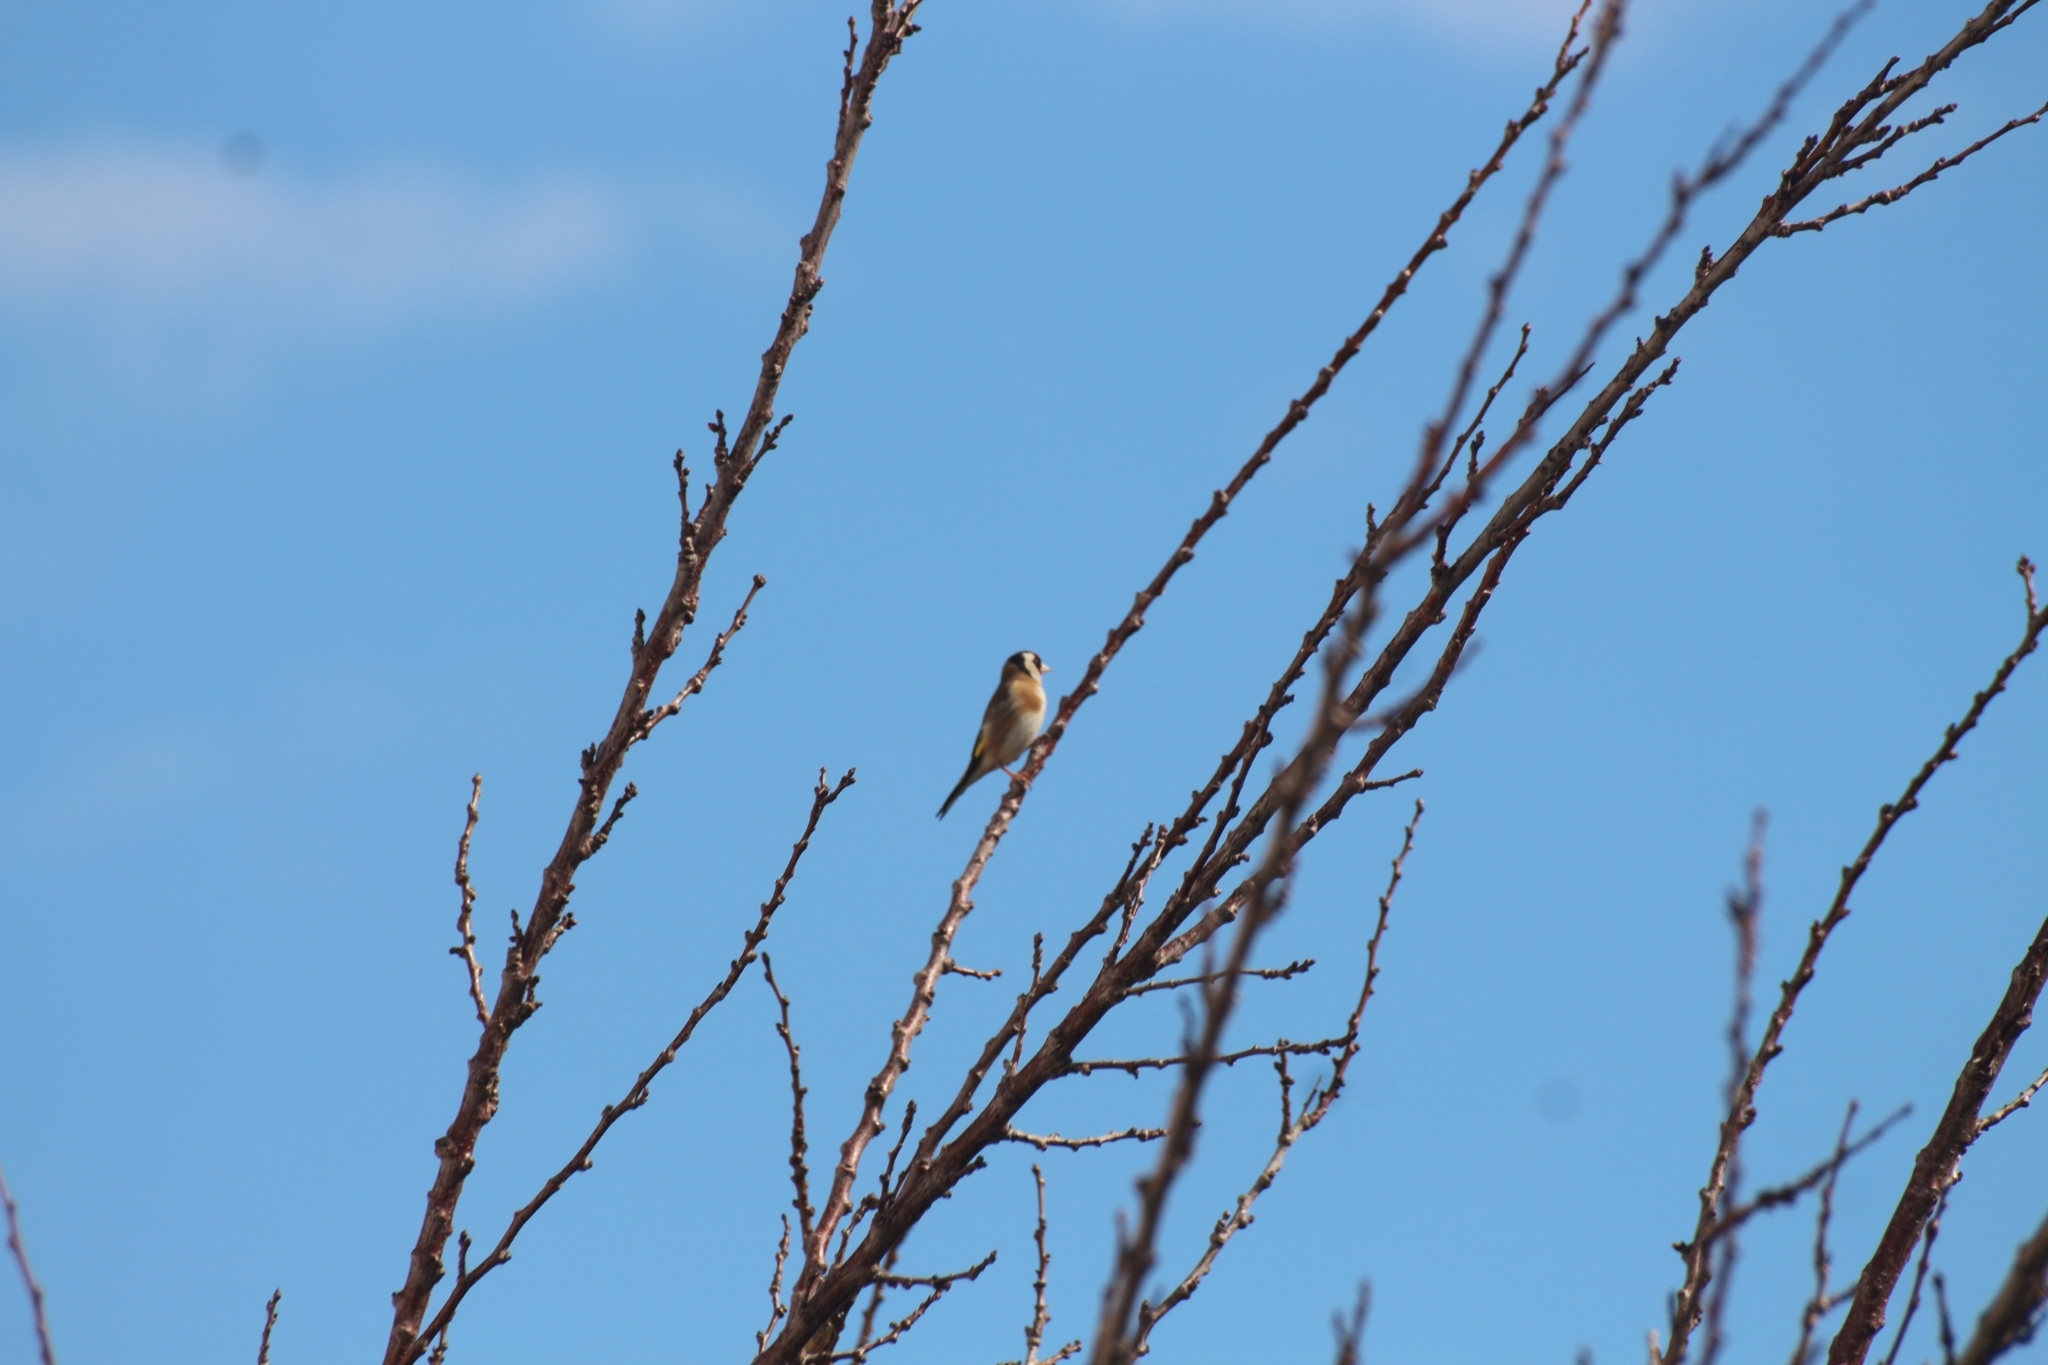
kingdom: Animalia
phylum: Chordata
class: Aves
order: Passeriformes
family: Fringillidae
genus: Carduelis
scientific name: Carduelis carduelis
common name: European goldfinch
